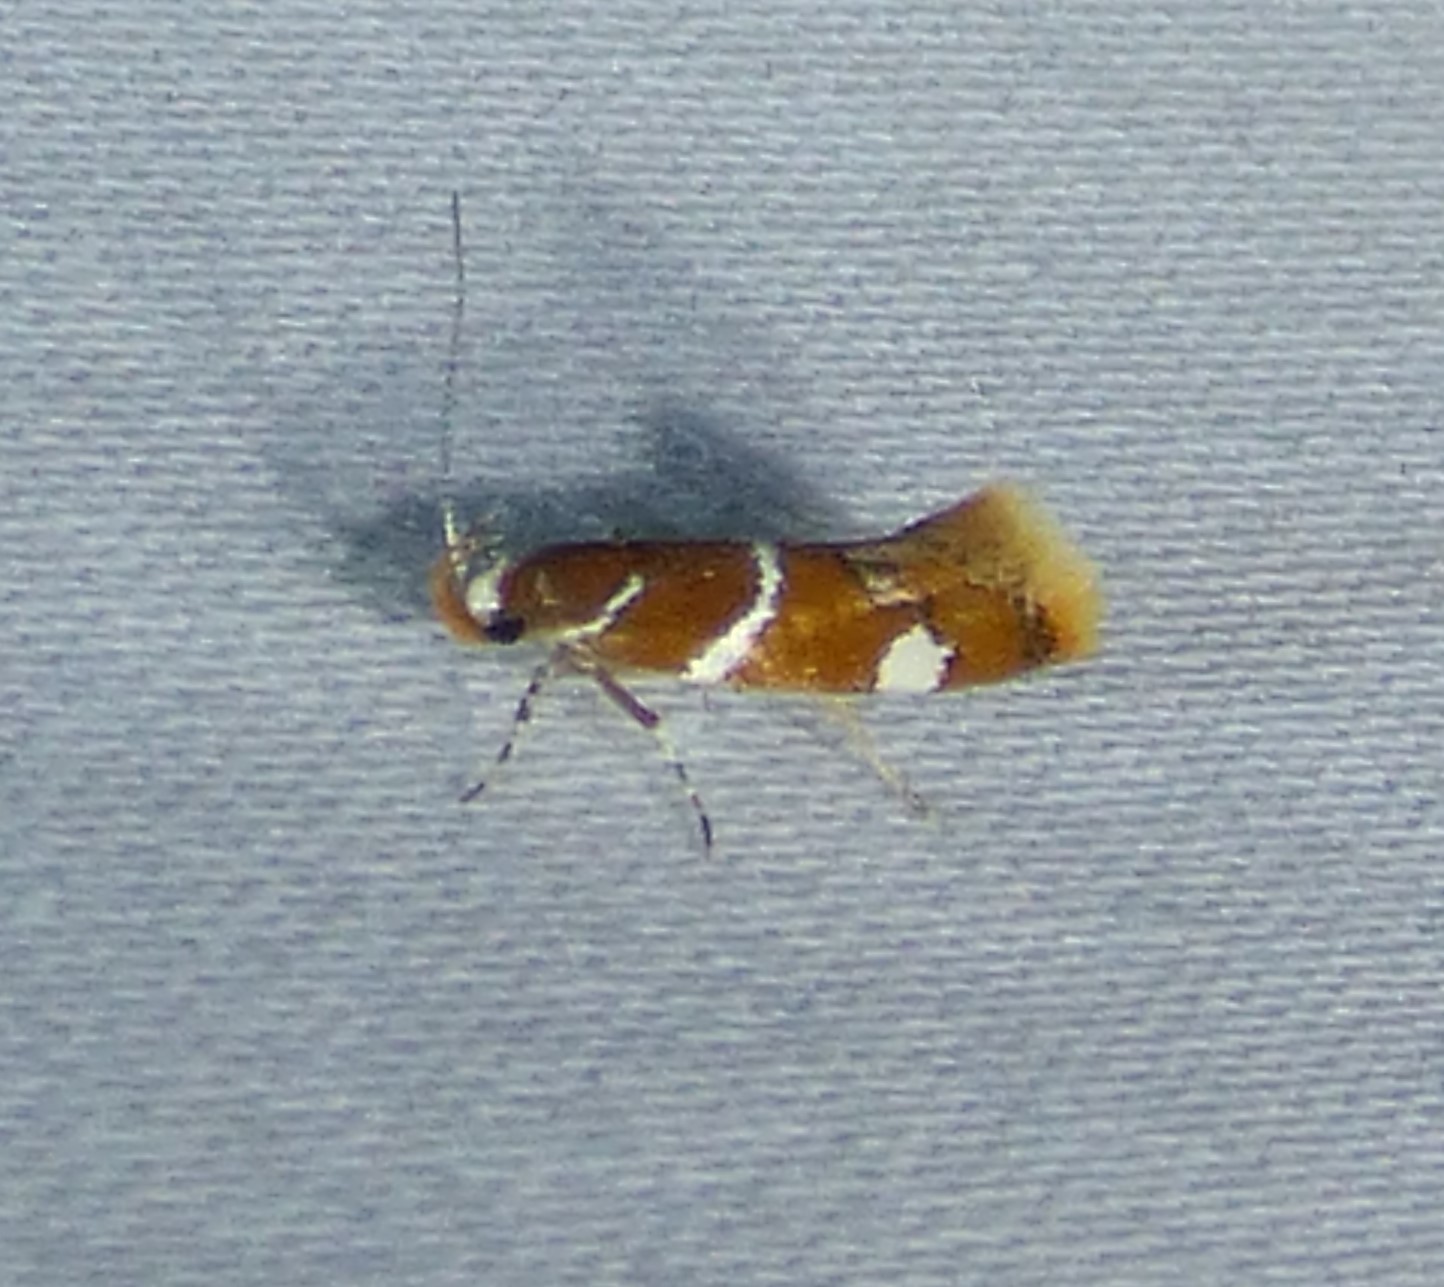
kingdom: Animalia
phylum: Arthropoda
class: Insecta
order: Lepidoptera
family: Oecophoridae
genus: Promalactis
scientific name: Promalactis suzukiella
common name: Moth
